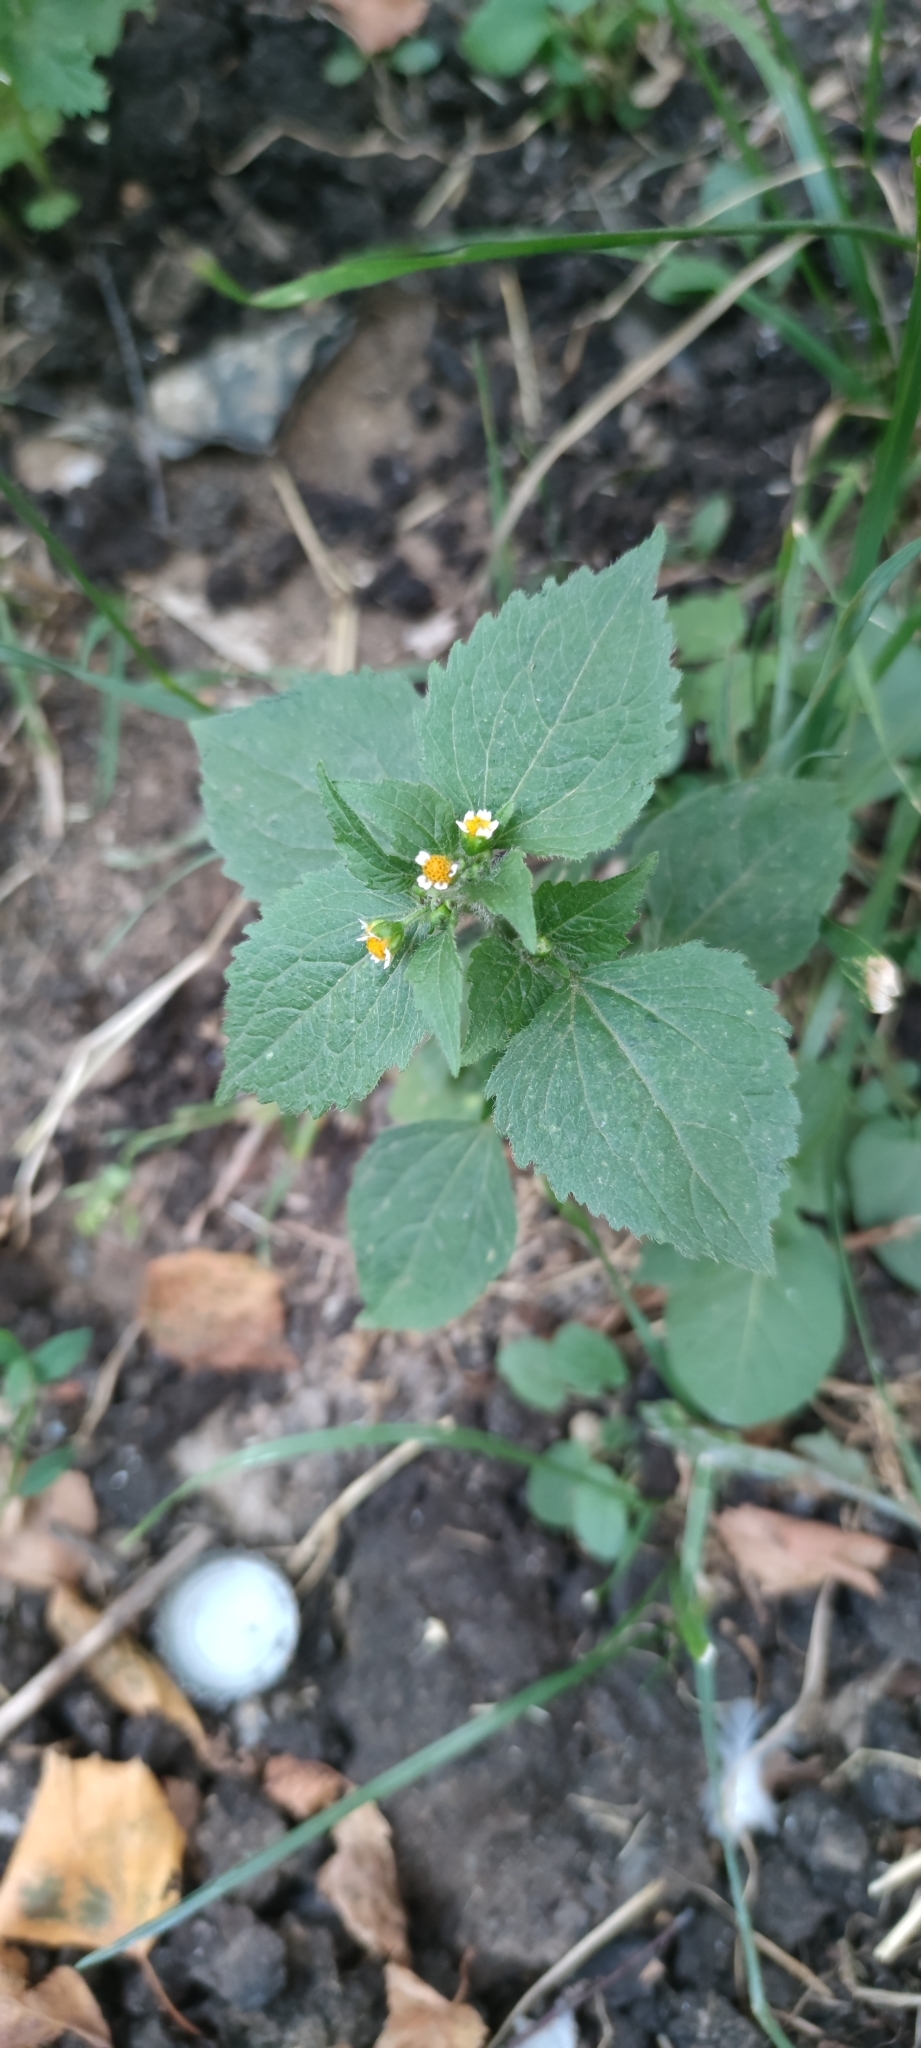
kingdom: Plantae
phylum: Tracheophyta
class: Magnoliopsida
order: Asterales
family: Asteraceae
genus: Galinsoga
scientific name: Galinsoga quadriradiata
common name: Shaggy soldier
